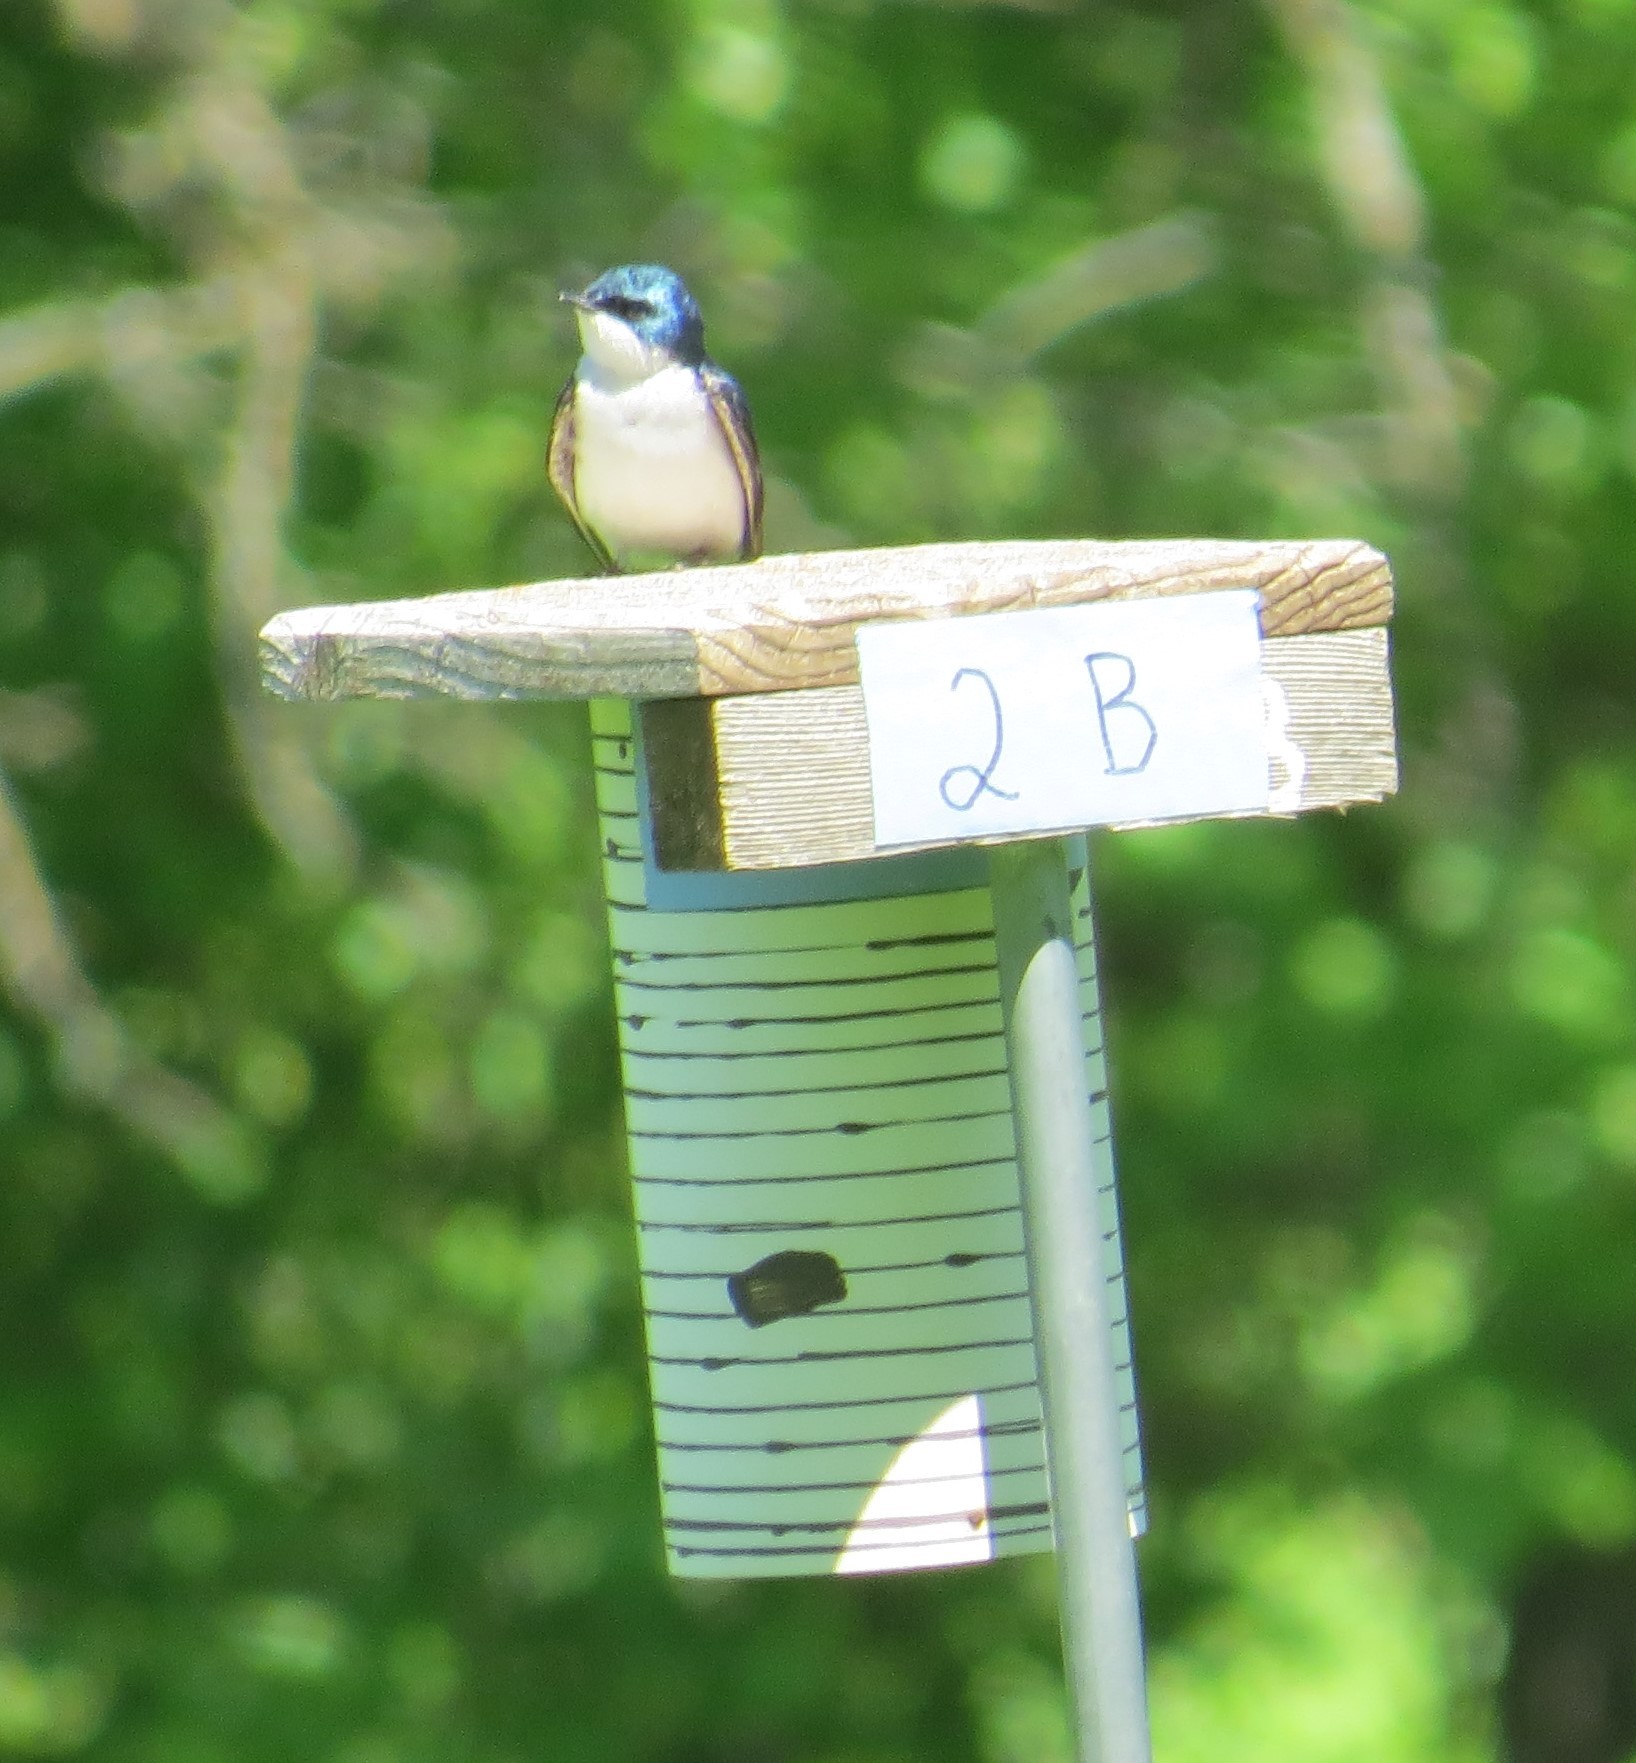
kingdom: Animalia
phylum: Chordata
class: Aves
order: Passeriformes
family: Hirundinidae
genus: Tachycineta
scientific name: Tachycineta bicolor
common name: Tree swallow
